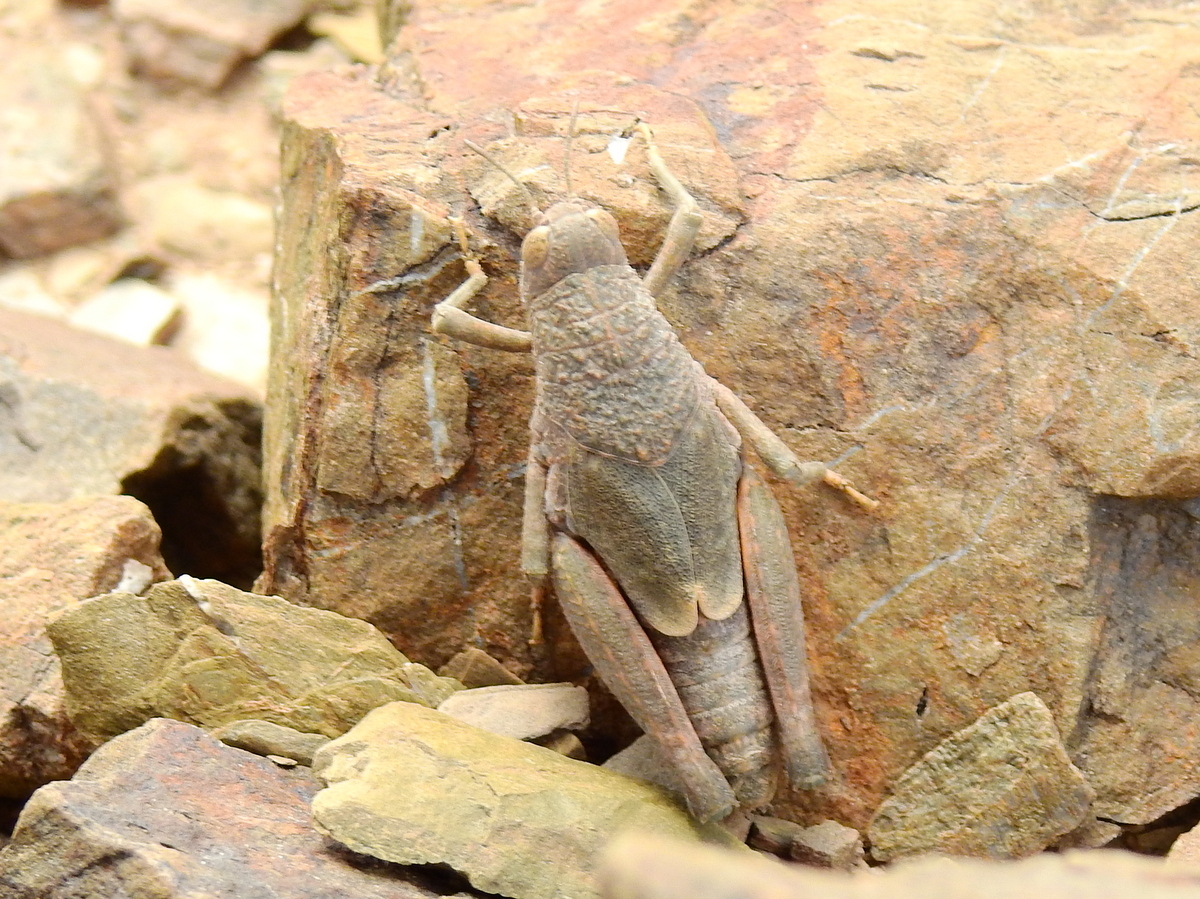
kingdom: Animalia
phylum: Arthropoda
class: Insecta
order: Orthoptera
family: Ommexechidae
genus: Aucacris
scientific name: Aucacris eumera
